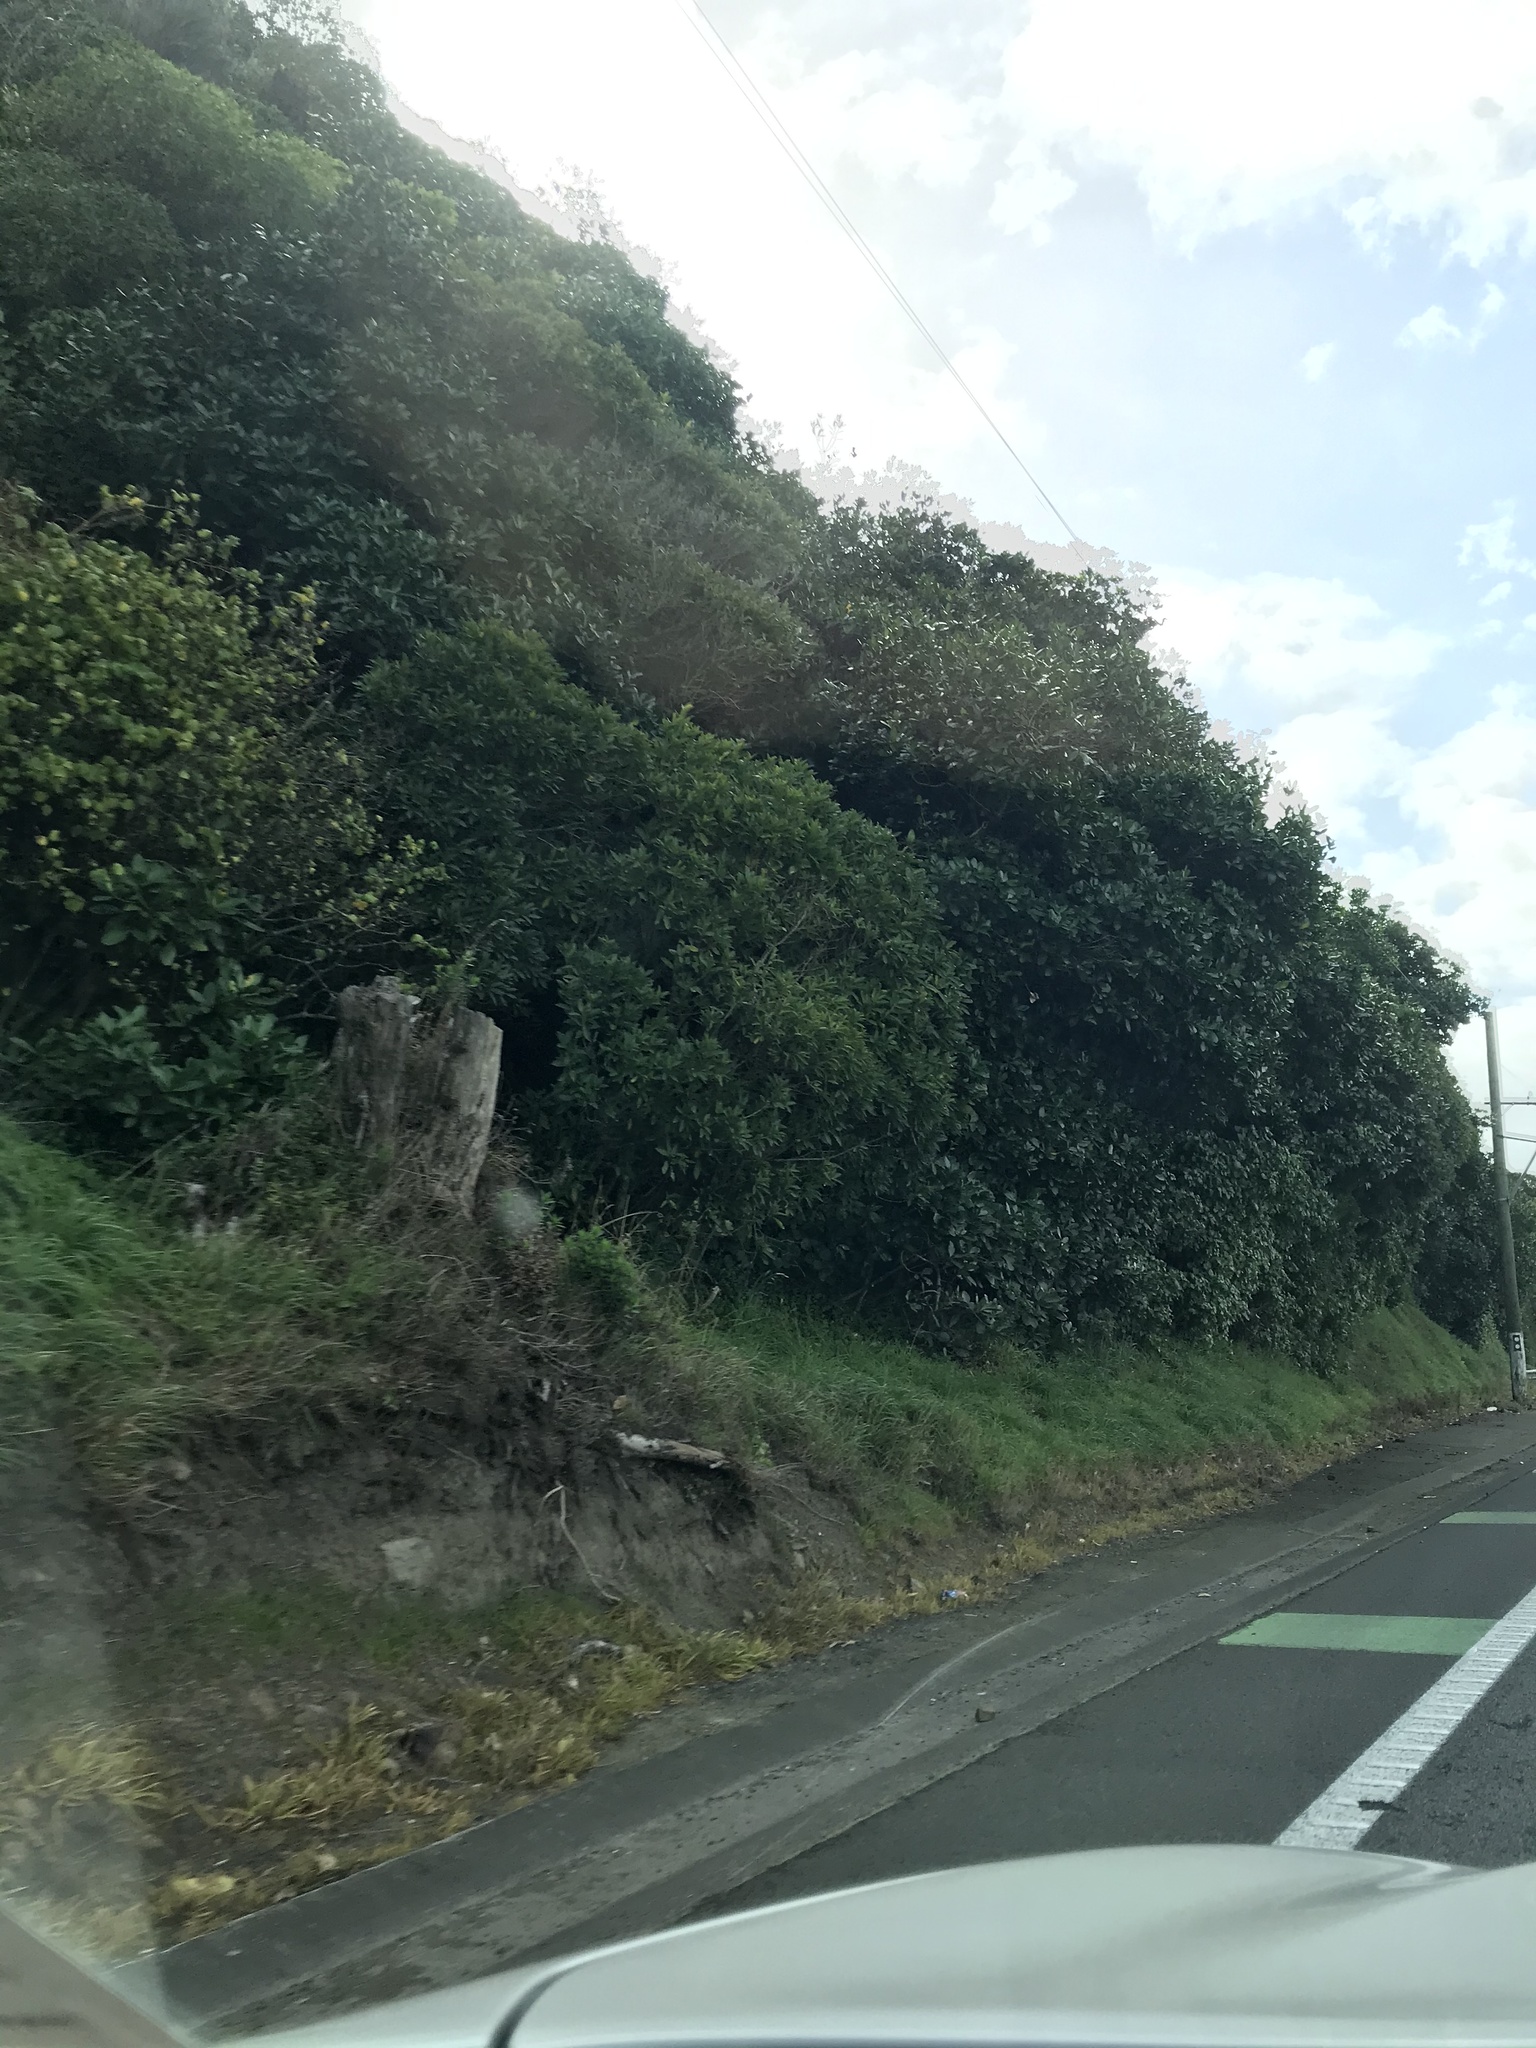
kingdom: Plantae
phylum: Tracheophyta
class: Magnoliopsida
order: Malpighiales
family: Violaceae
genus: Melicytus
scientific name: Melicytus ramiflorus
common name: Mahoe
